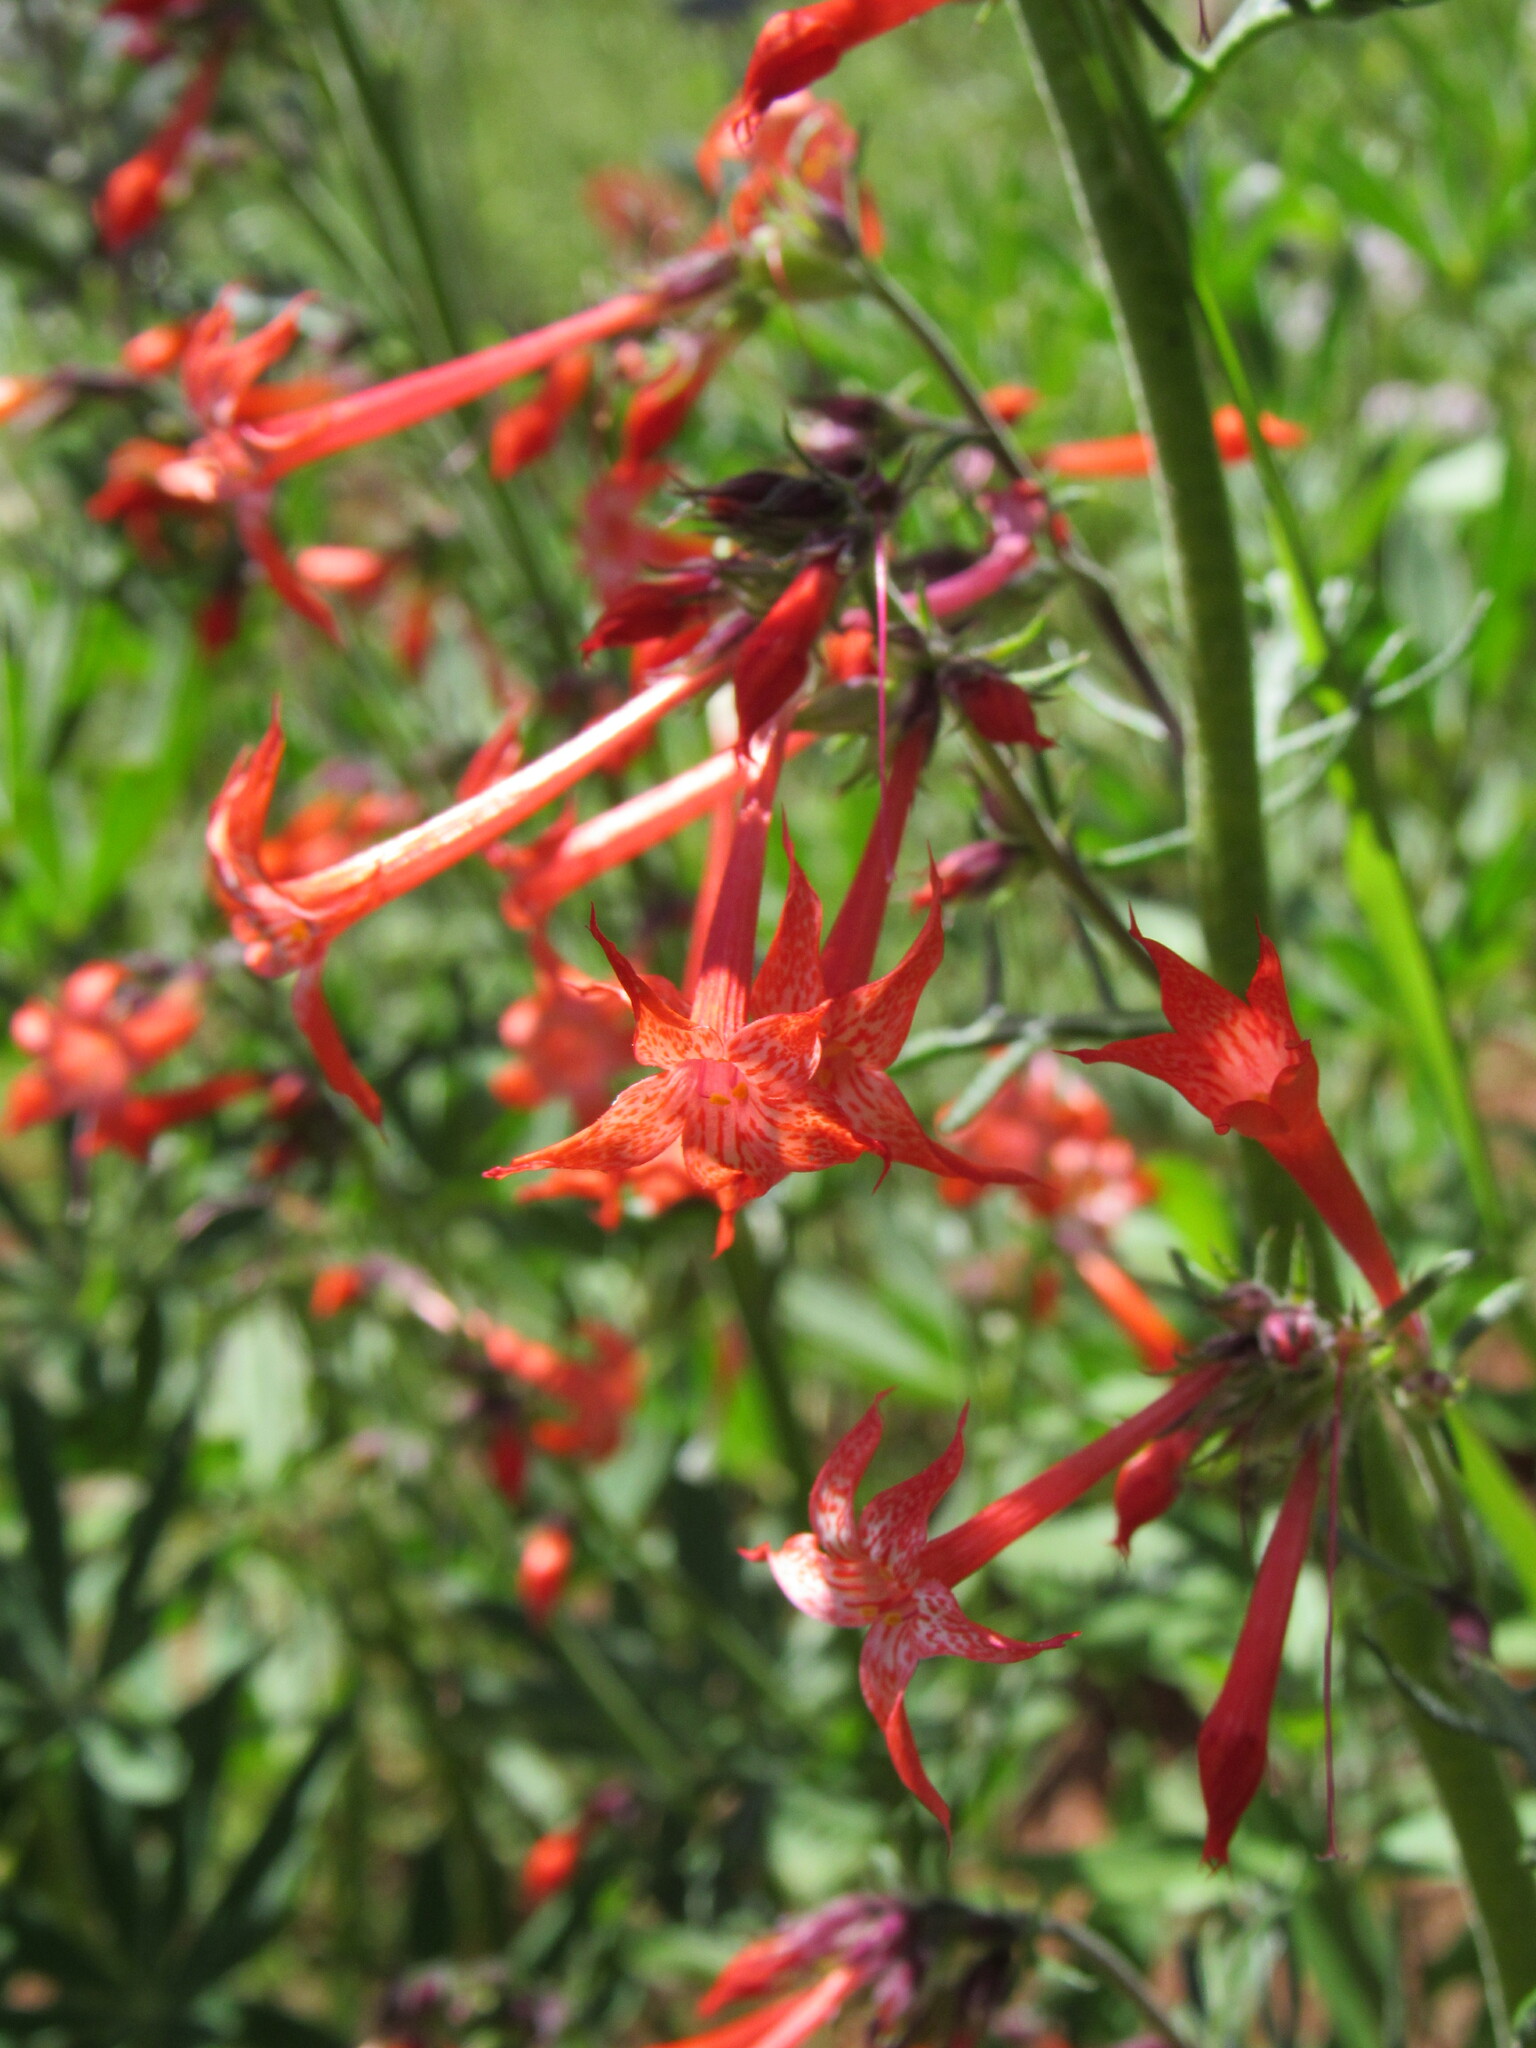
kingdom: Plantae
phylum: Tracheophyta
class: Magnoliopsida
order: Ericales
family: Polemoniaceae
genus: Ipomopsis
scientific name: Ipomopsis aggregata
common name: Scarlet gilia
